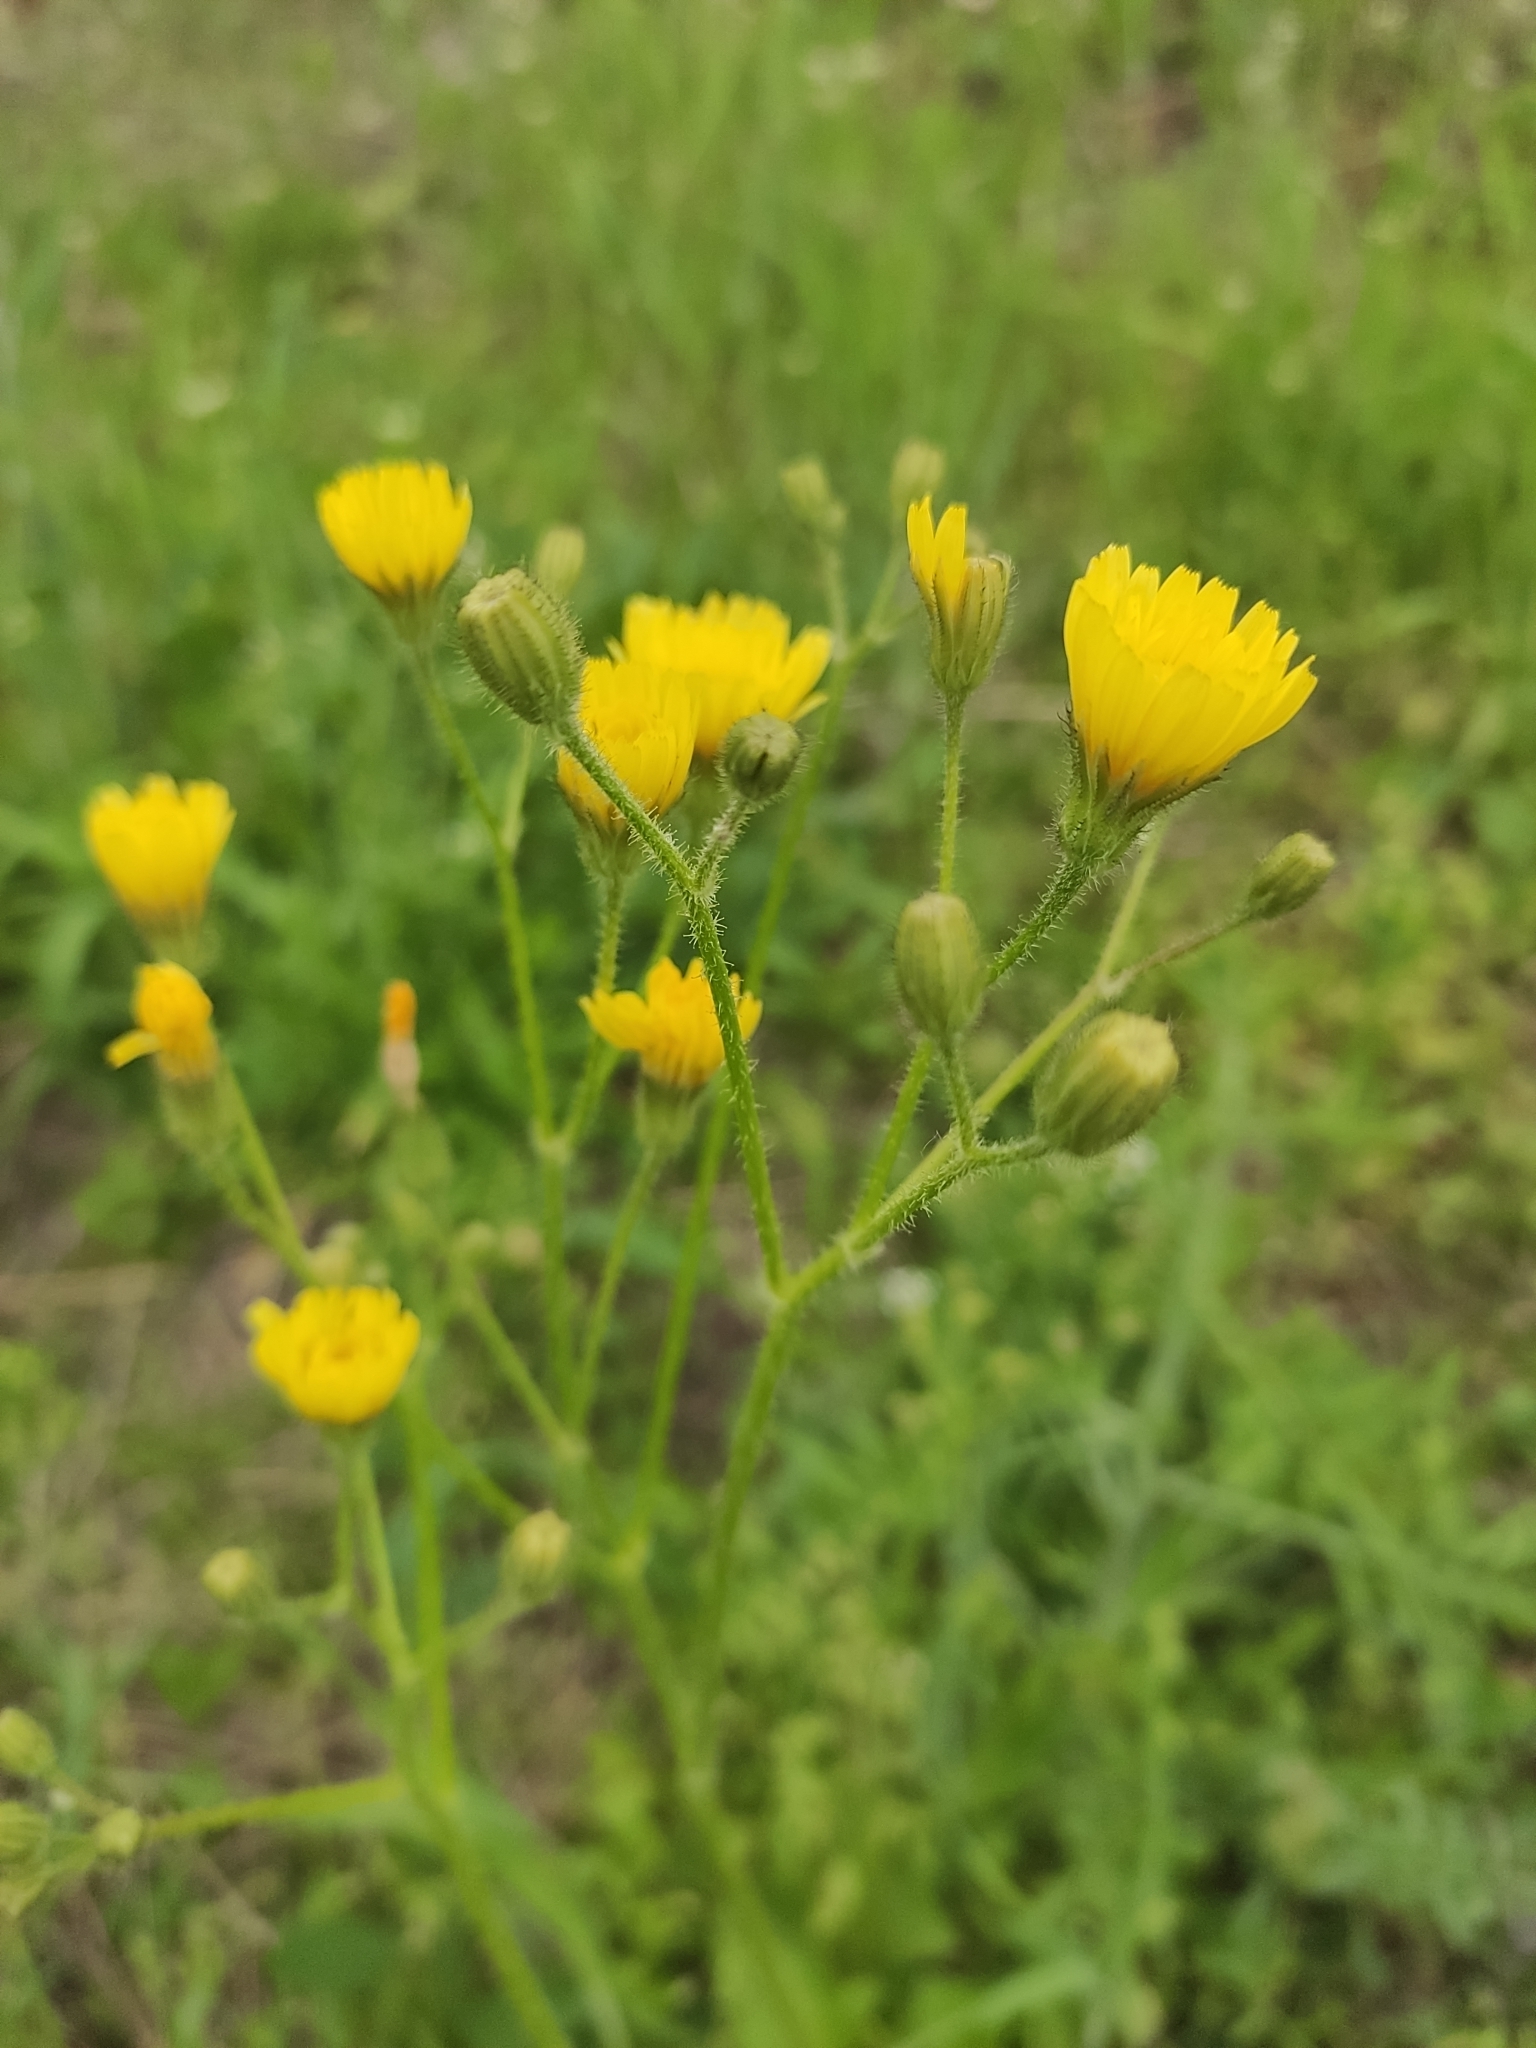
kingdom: Plantae
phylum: Tracheophyta
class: Magnoliopsida
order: Asterales
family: Asteraceae
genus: Crepis
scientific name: Crepis sancta
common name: Hawk's-beard
